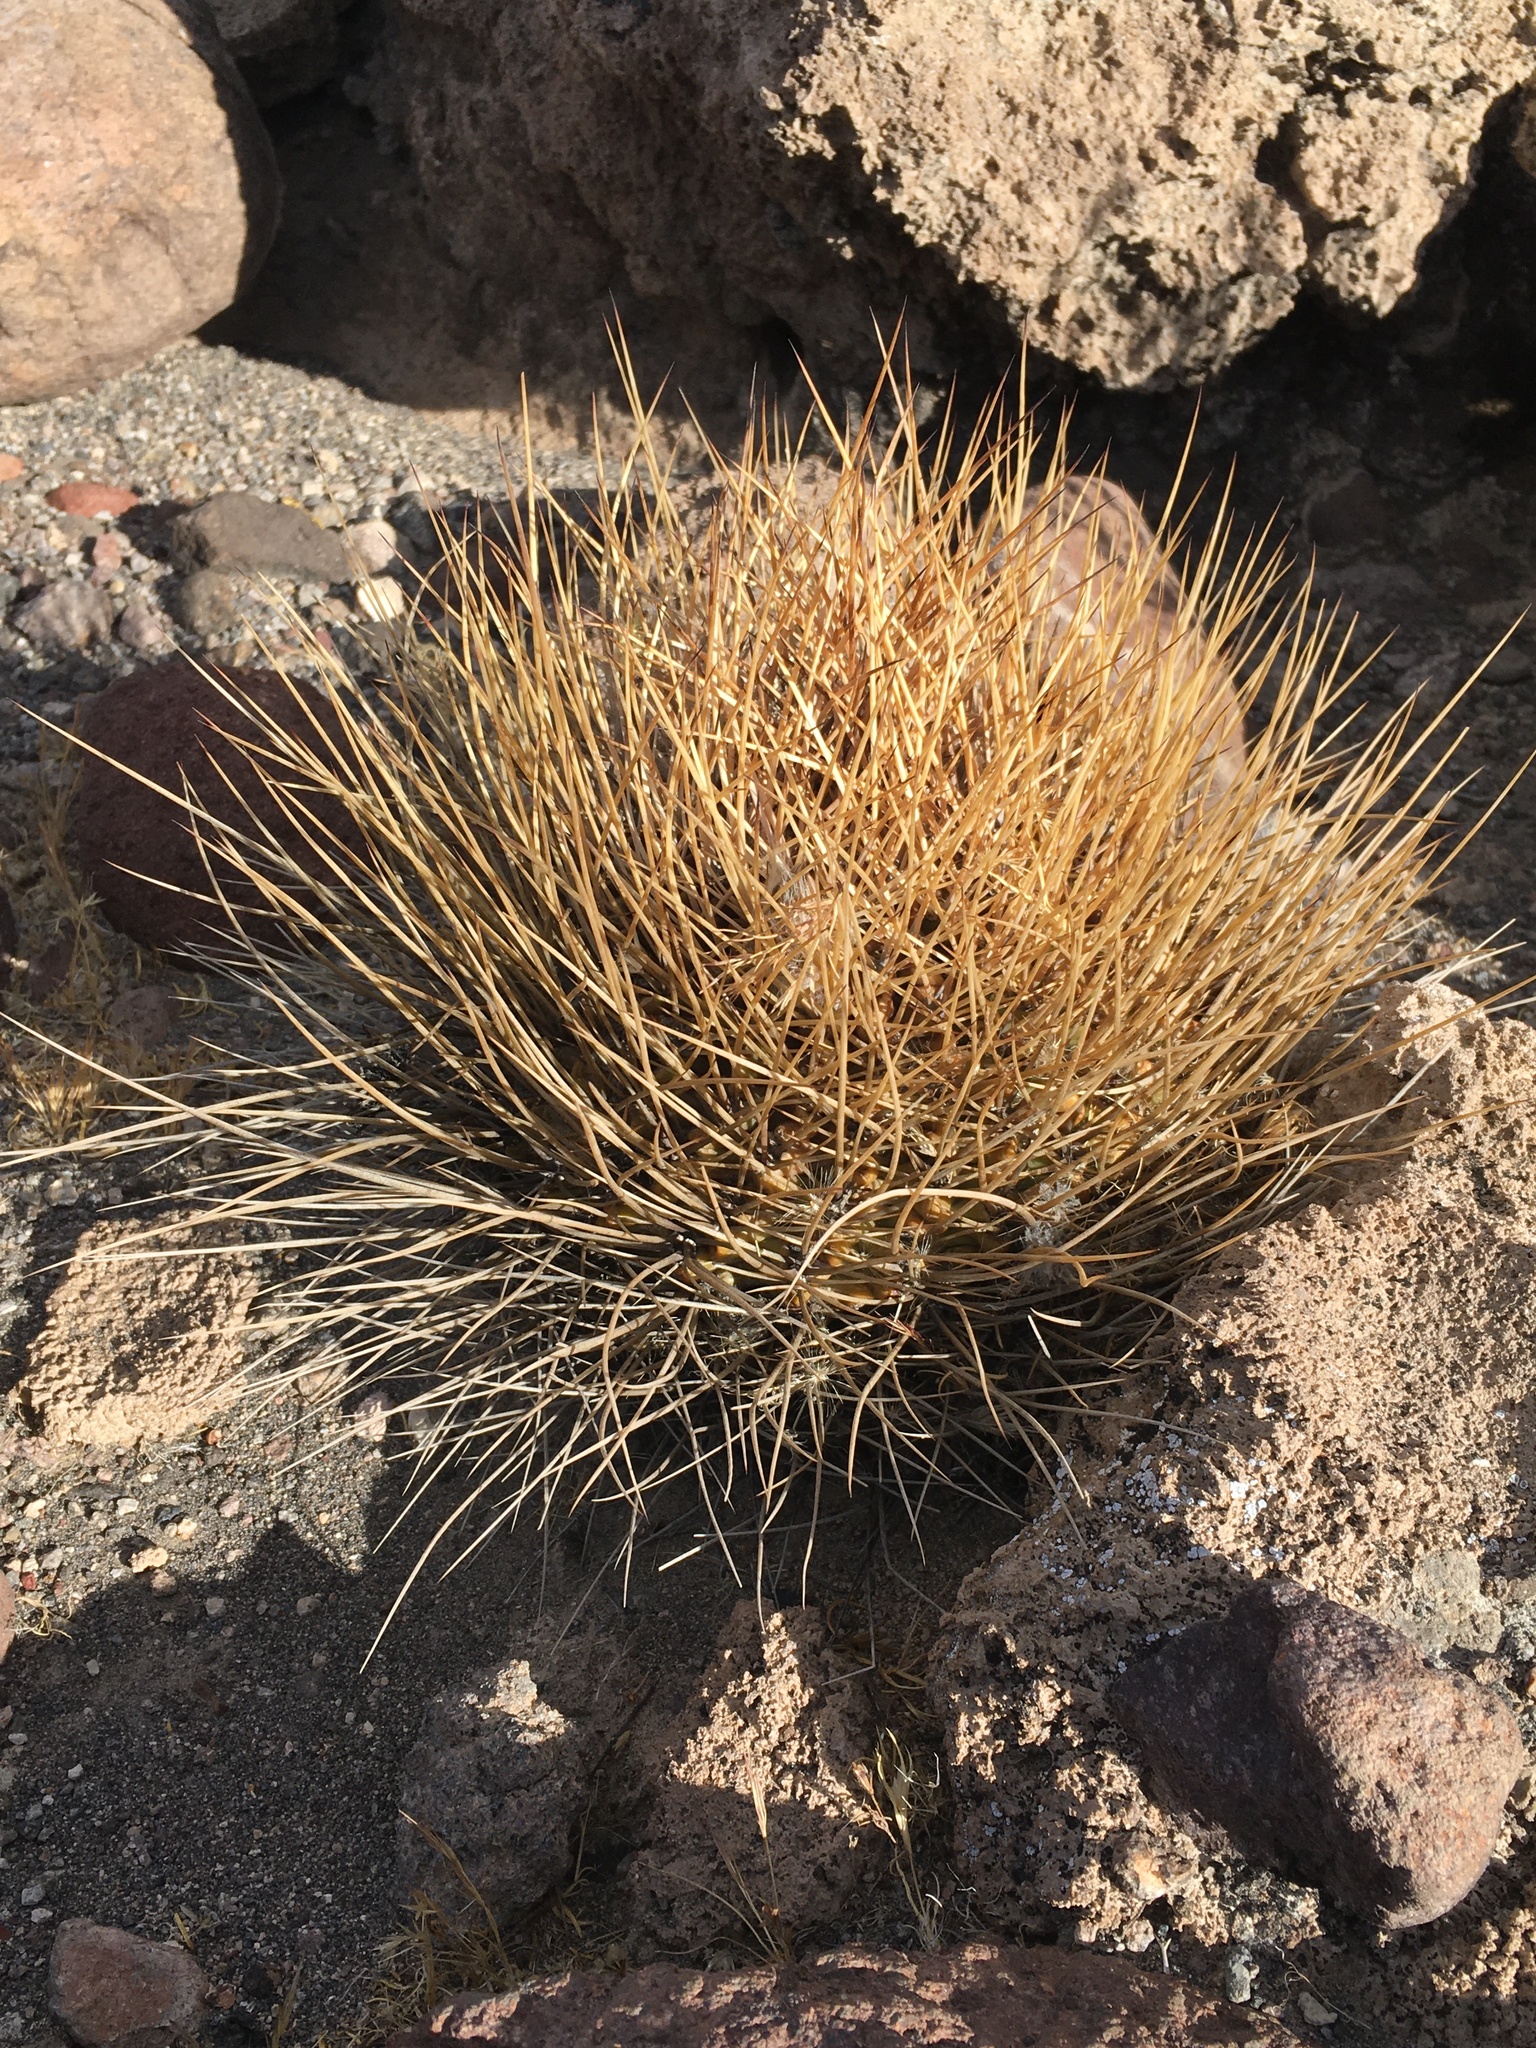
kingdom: Plantae
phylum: Tracheophyta
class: Magnoliopsida
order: Caryophyllales
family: Cactaceae
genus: Lobivia
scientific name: Lobivia ferox
